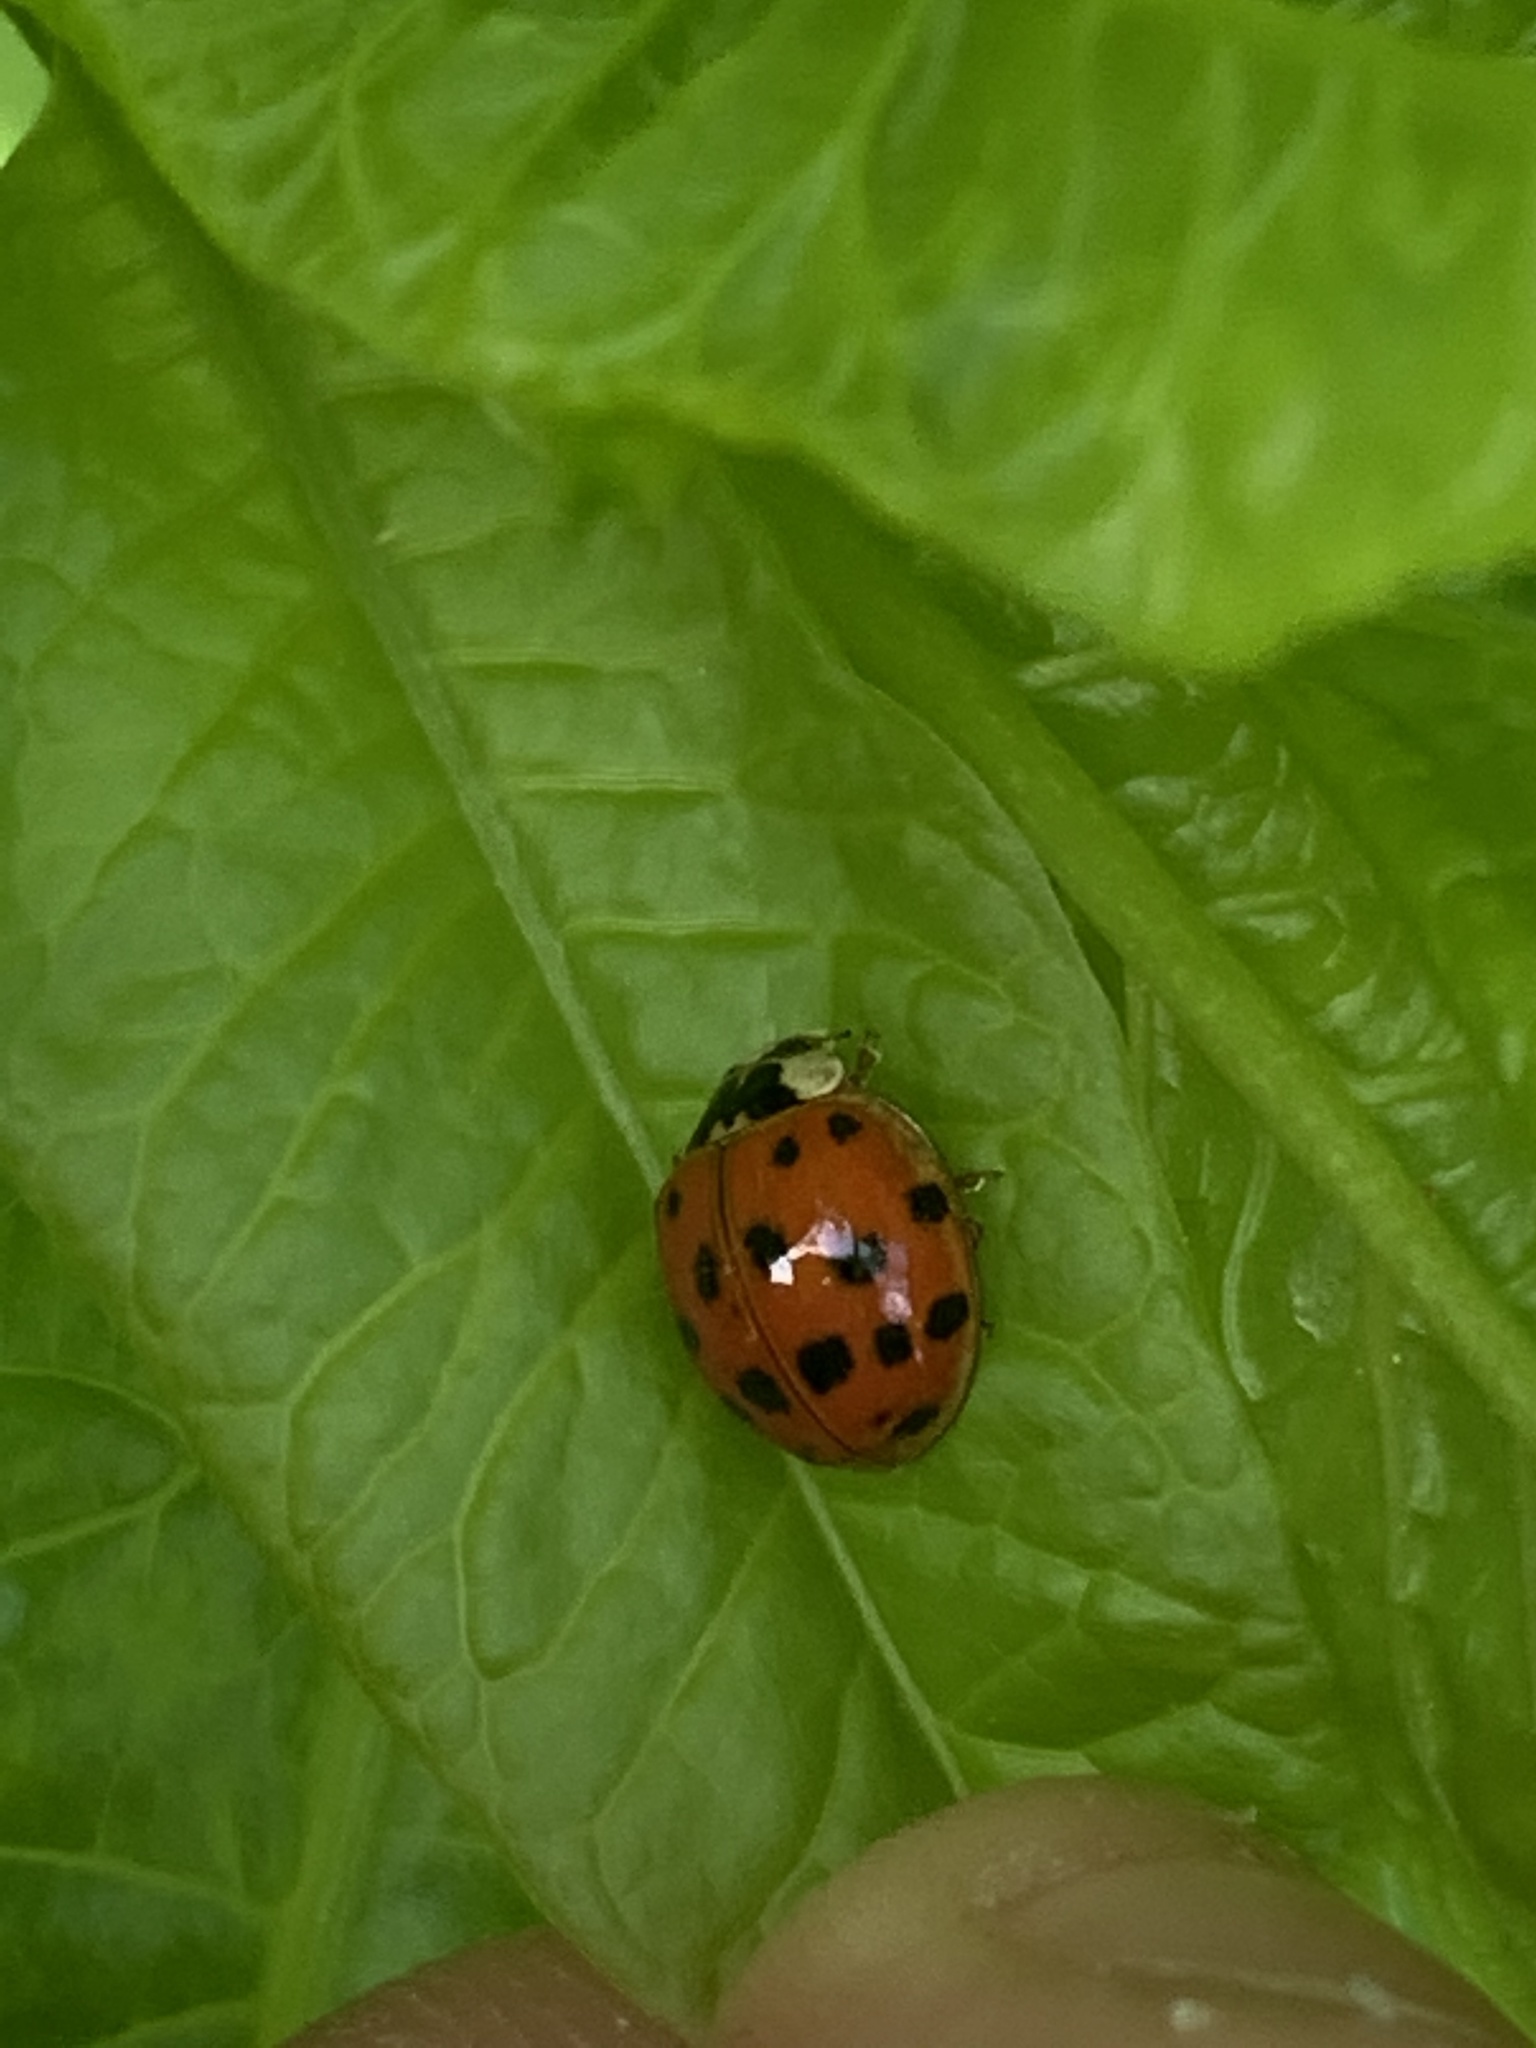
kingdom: Animalia
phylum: Arthropoda
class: Insecta
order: Coleoptera
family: Coccinellidae
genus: Harmonia
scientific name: Harmonia axyridis
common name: Harlequin ladybird
